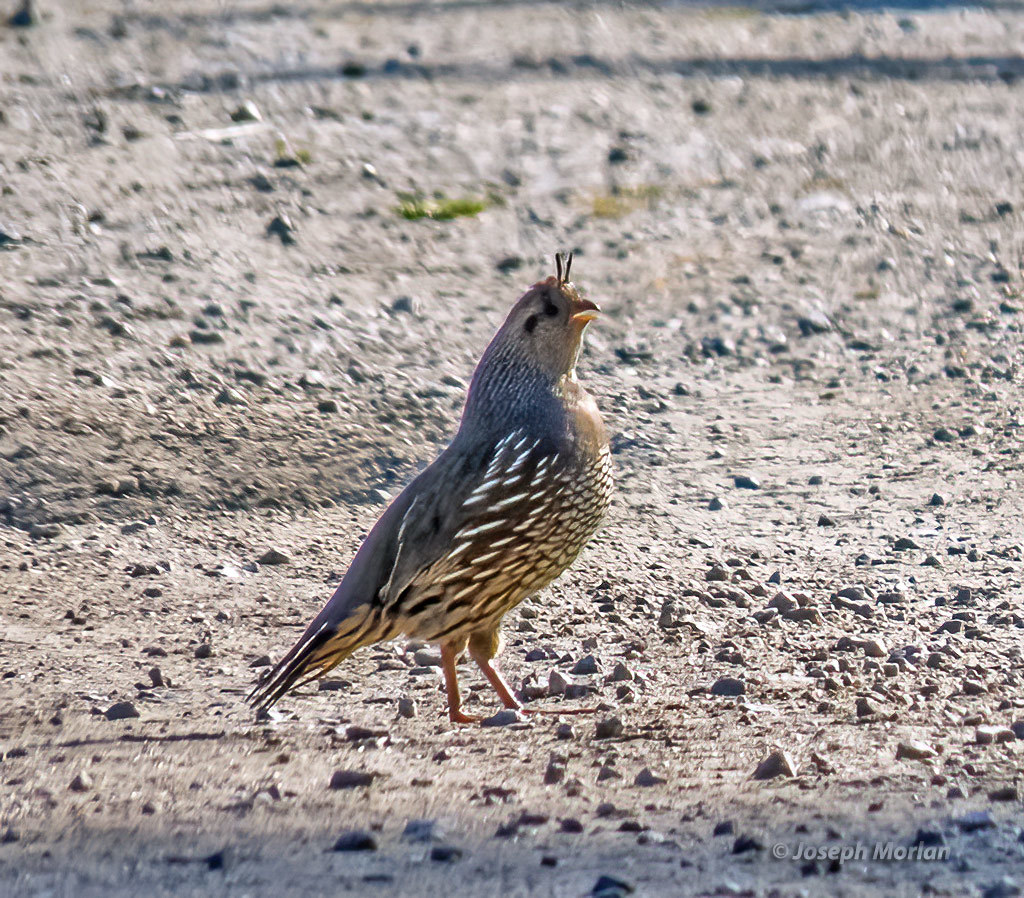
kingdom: Animalia
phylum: Chordata
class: Aves
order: Galliformes
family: Odontophoridae
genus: Callipepla
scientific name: Callipepla californica
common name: California quail
